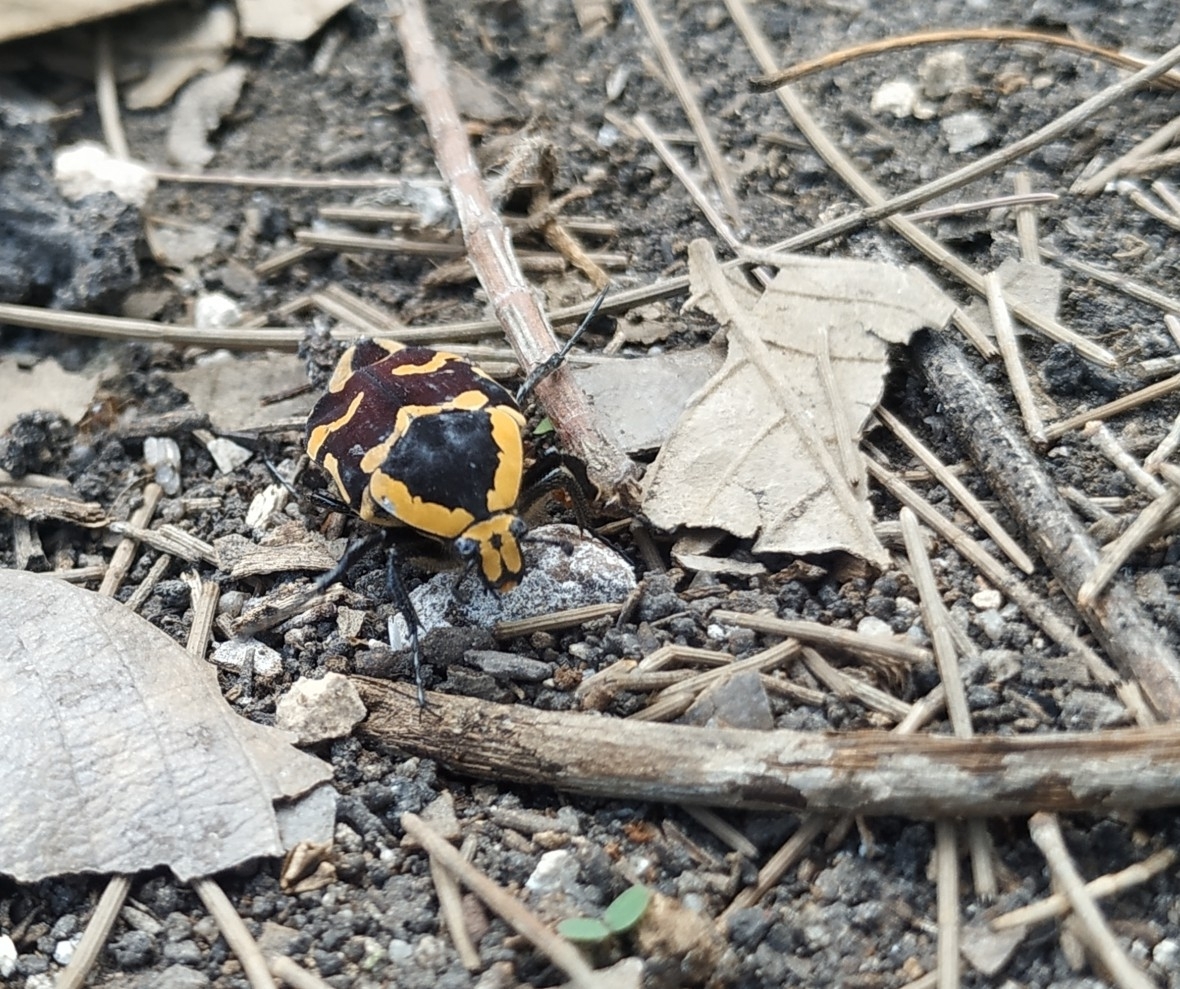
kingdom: Animalia
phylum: Arthropoda
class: Insecta
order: Coleoptera
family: Scarabaeidae
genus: Amithao
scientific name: Amithao marginicollis
